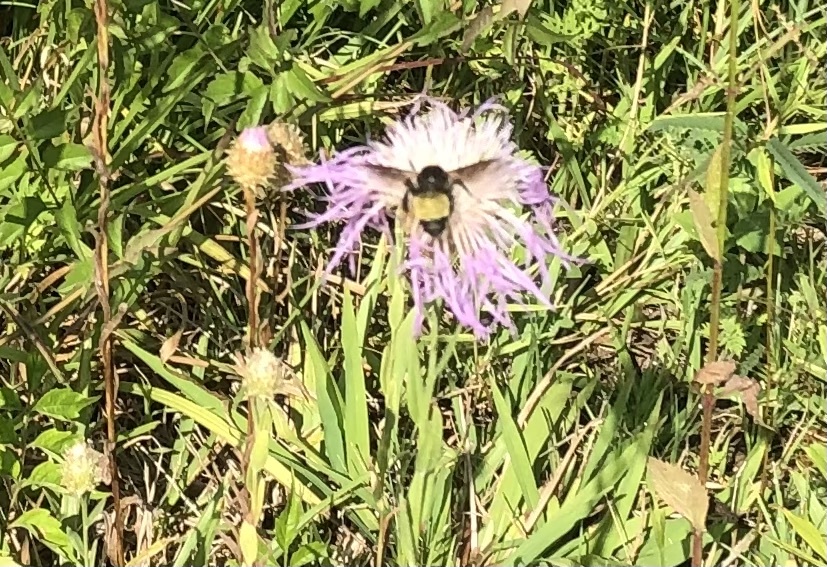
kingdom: Animalia
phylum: Arthropoda
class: Insecta
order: Hymenoptera
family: Apidae
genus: Bombus
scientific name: Bombus pensylvanicus
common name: Bumble bee
